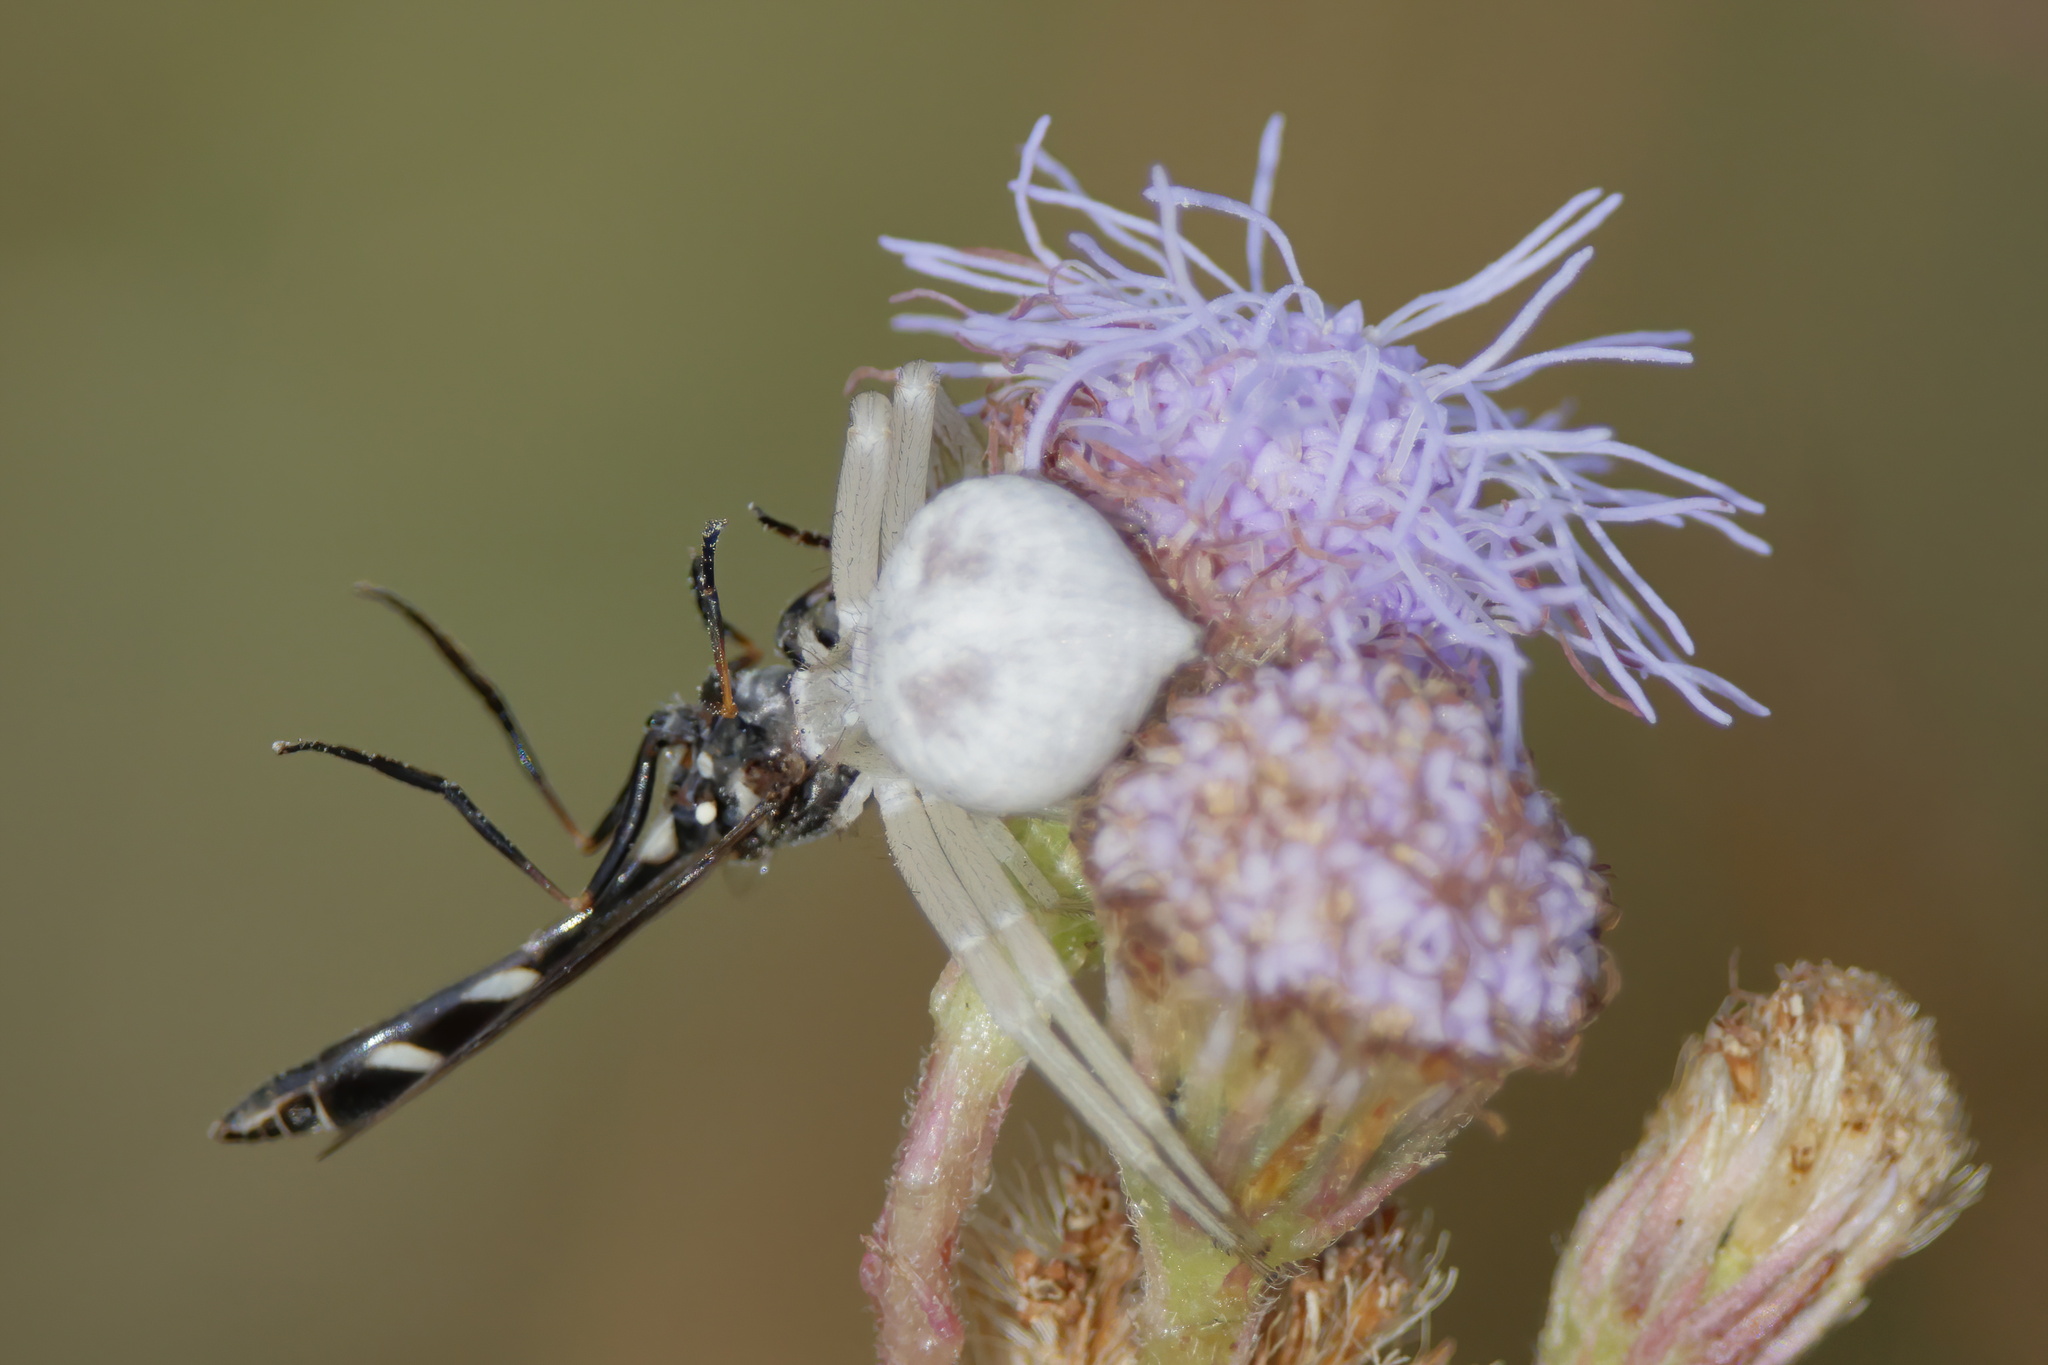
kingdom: Animalia
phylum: Arthropoda
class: Insecta
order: Diptera
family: Syrphidae
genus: Dioprosopa
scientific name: Dioprosopa clavatus
